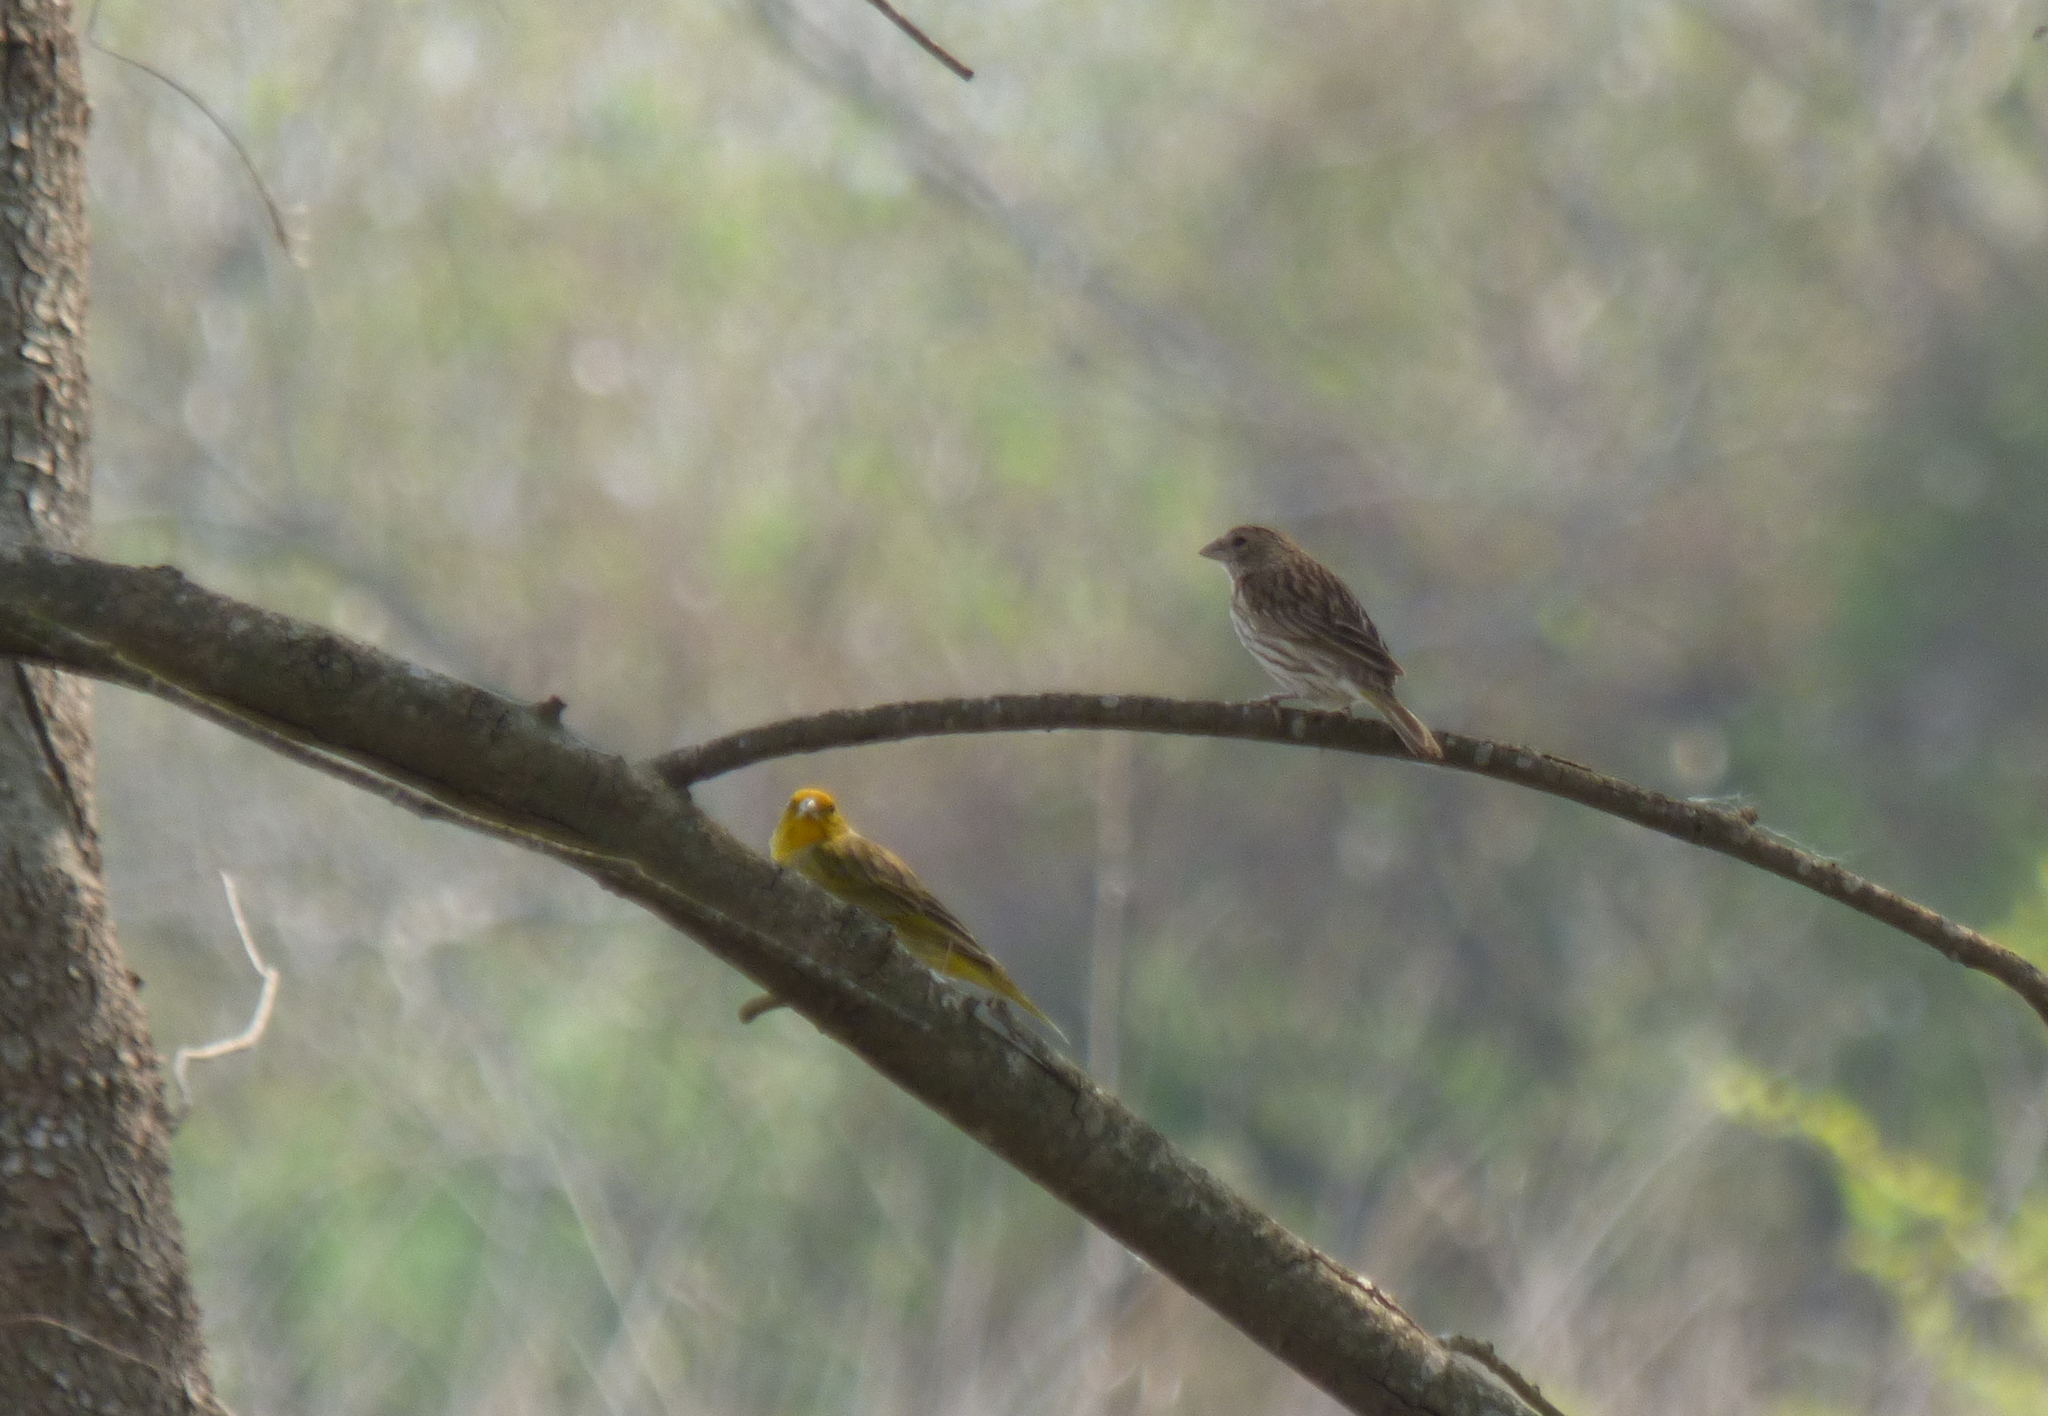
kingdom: Animalia
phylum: Chordata
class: Aves
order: Passeriformes
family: Thraupidae
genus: Sicalis
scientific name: Sicalis flaveola
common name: Saffron finch
